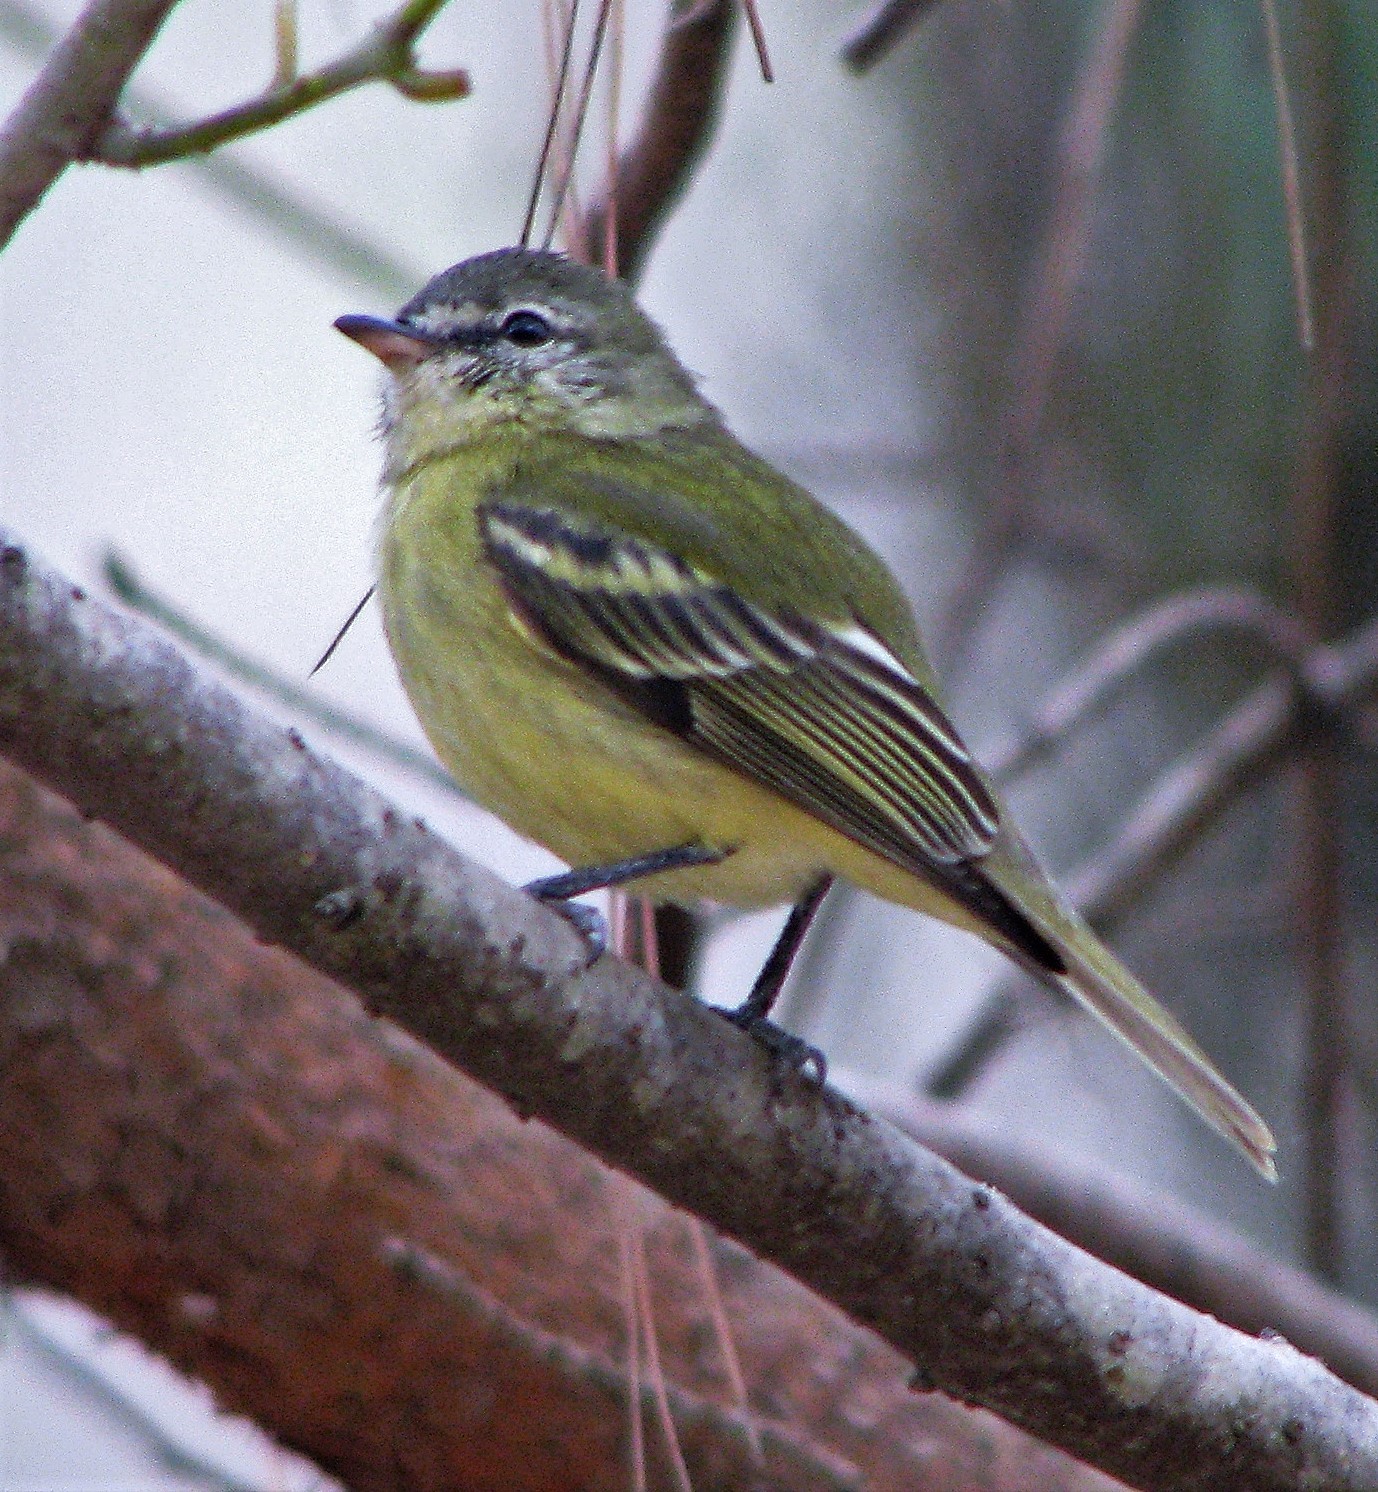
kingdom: Animalia
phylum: Chordata
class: Aves
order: Passeriformes
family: Tyrannidae
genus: Phyllomyias
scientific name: Phyllomyias burmeisteri
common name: Rough-legged tyrannulet
